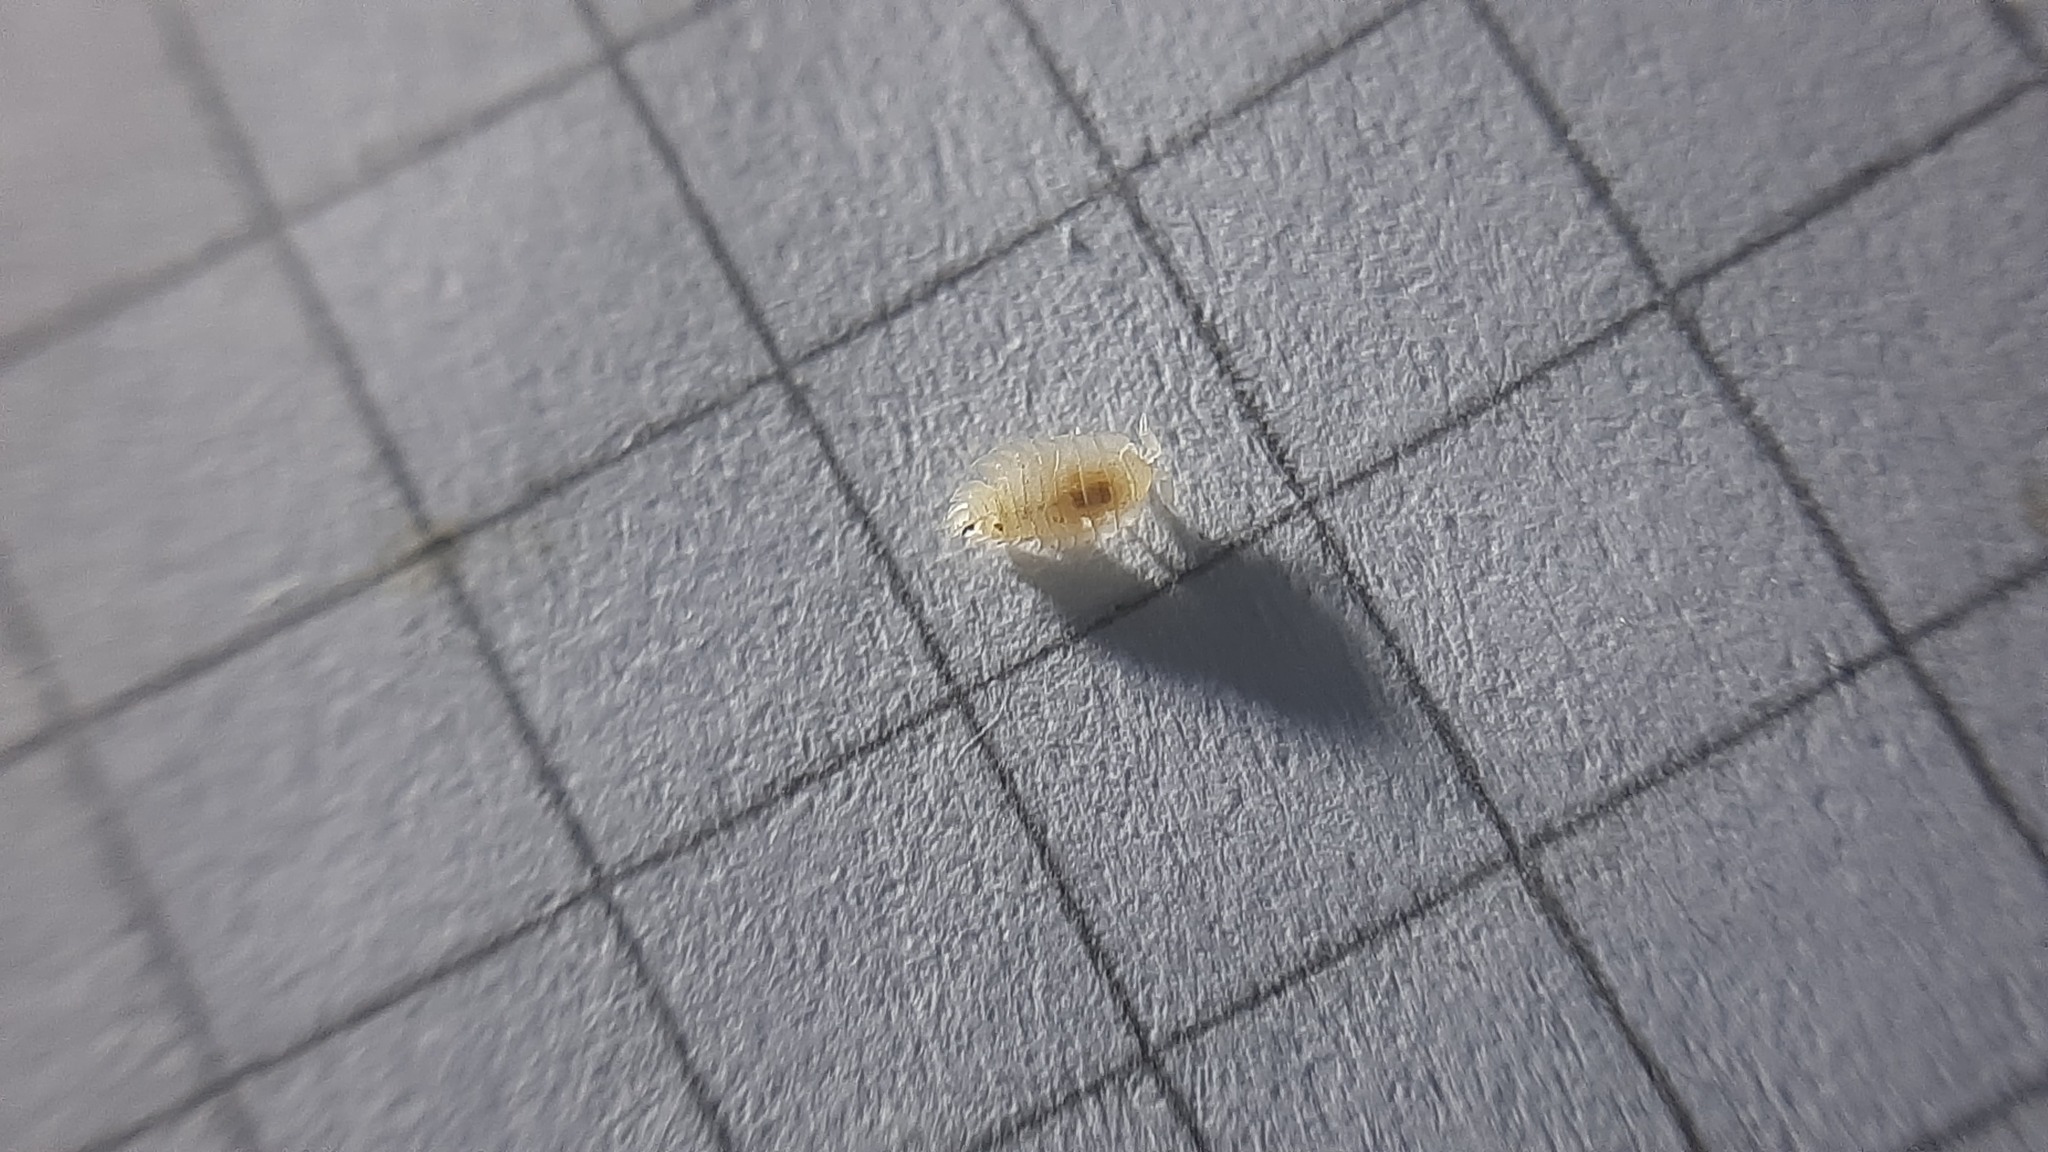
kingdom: Animalia
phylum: Arthropoda
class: Malacostraca
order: Isopoda
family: Platyarthridae
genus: Platyarthrus
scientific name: Platyarthrus hoffmannseggii
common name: Ant woodlouse
